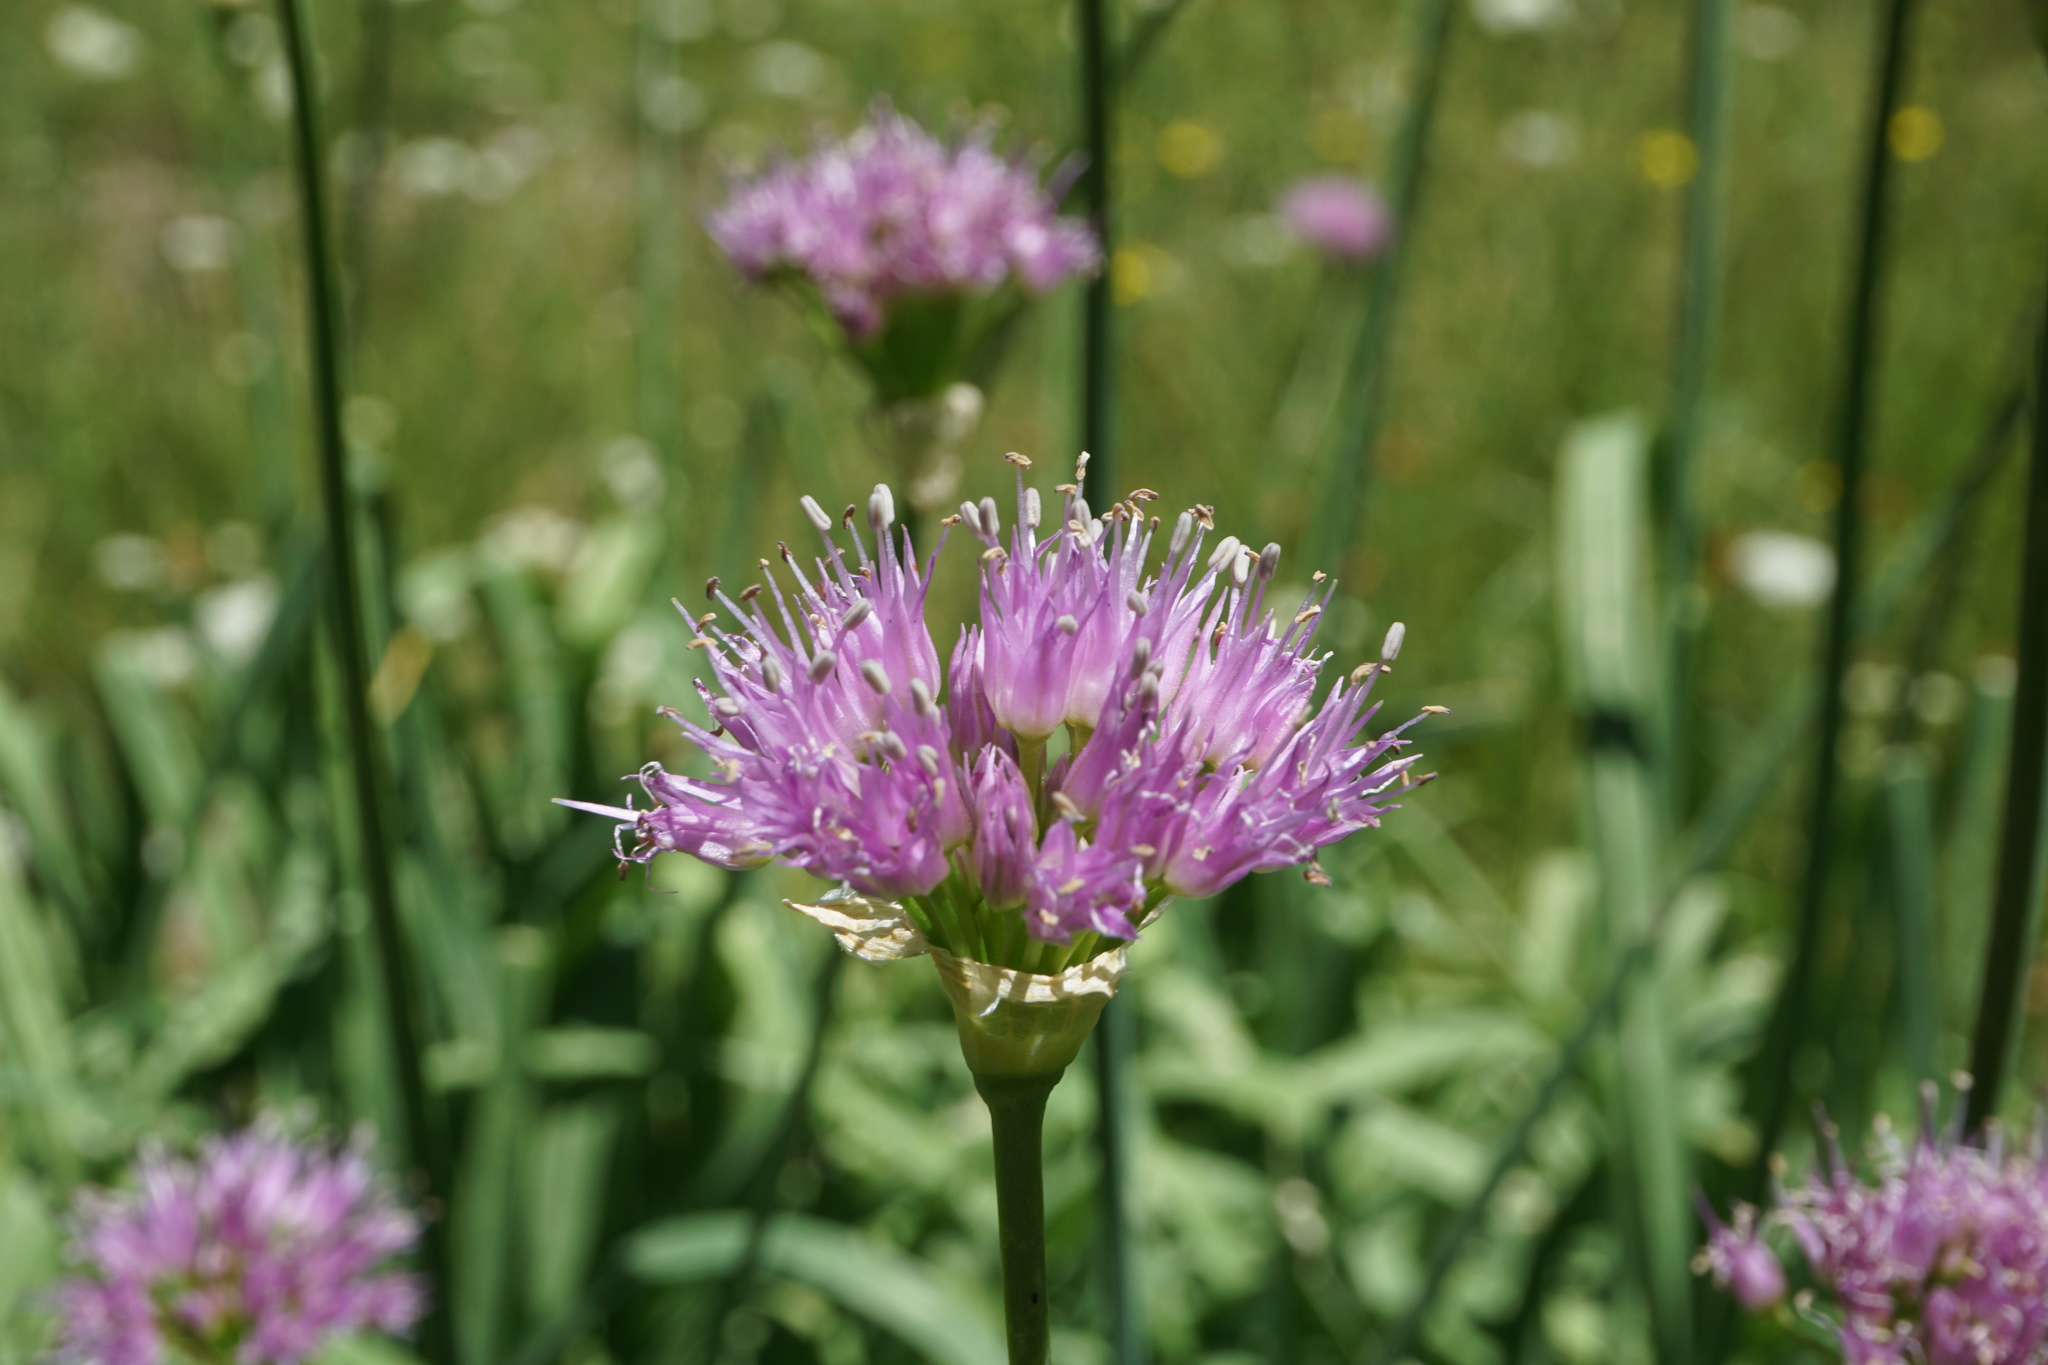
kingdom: Plantae
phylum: Tracheophyta
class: Liliopsida
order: Asparagales
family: Amaryllidaceae
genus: Allium
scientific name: Allium validum
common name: Pacific mountain onion
